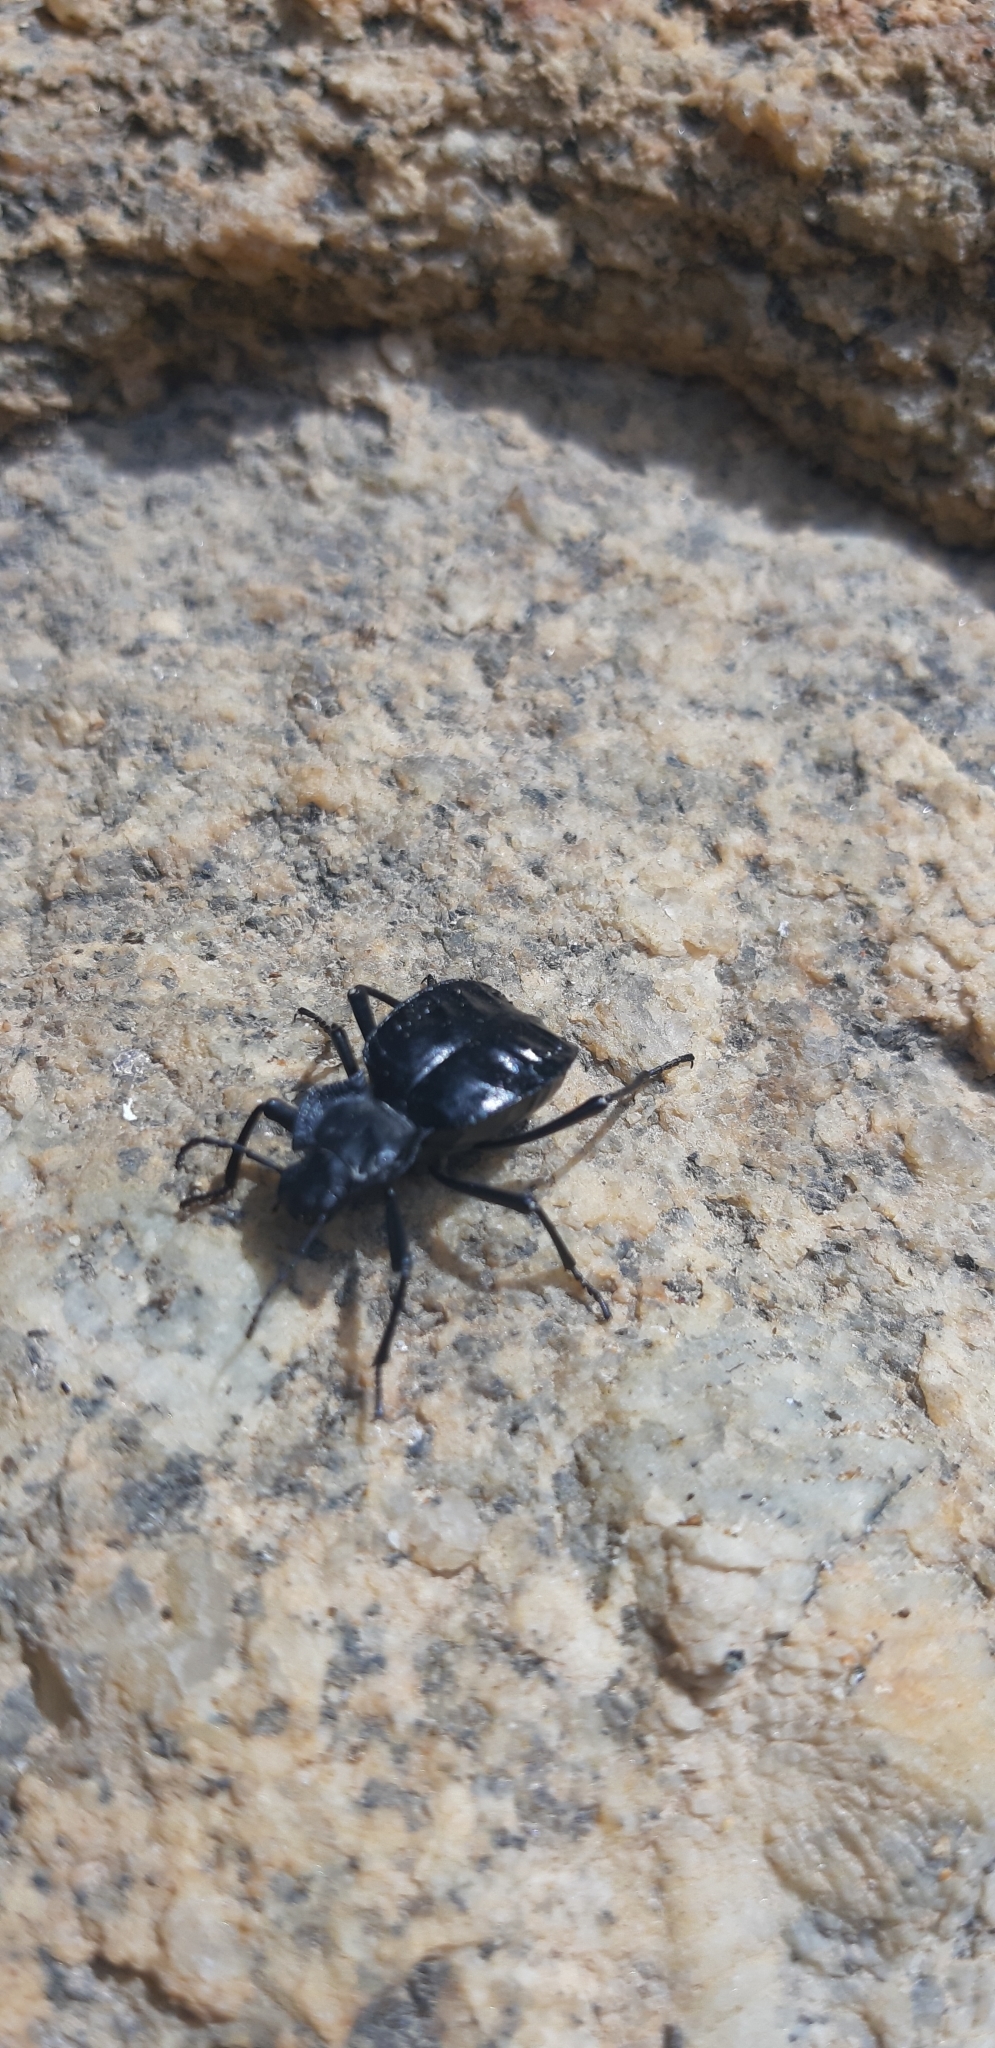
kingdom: Animalia
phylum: Arthropoda
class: Insecta
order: Coleoptera
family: Tenebrionidae
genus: Akis
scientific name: Akis bacarozzo
